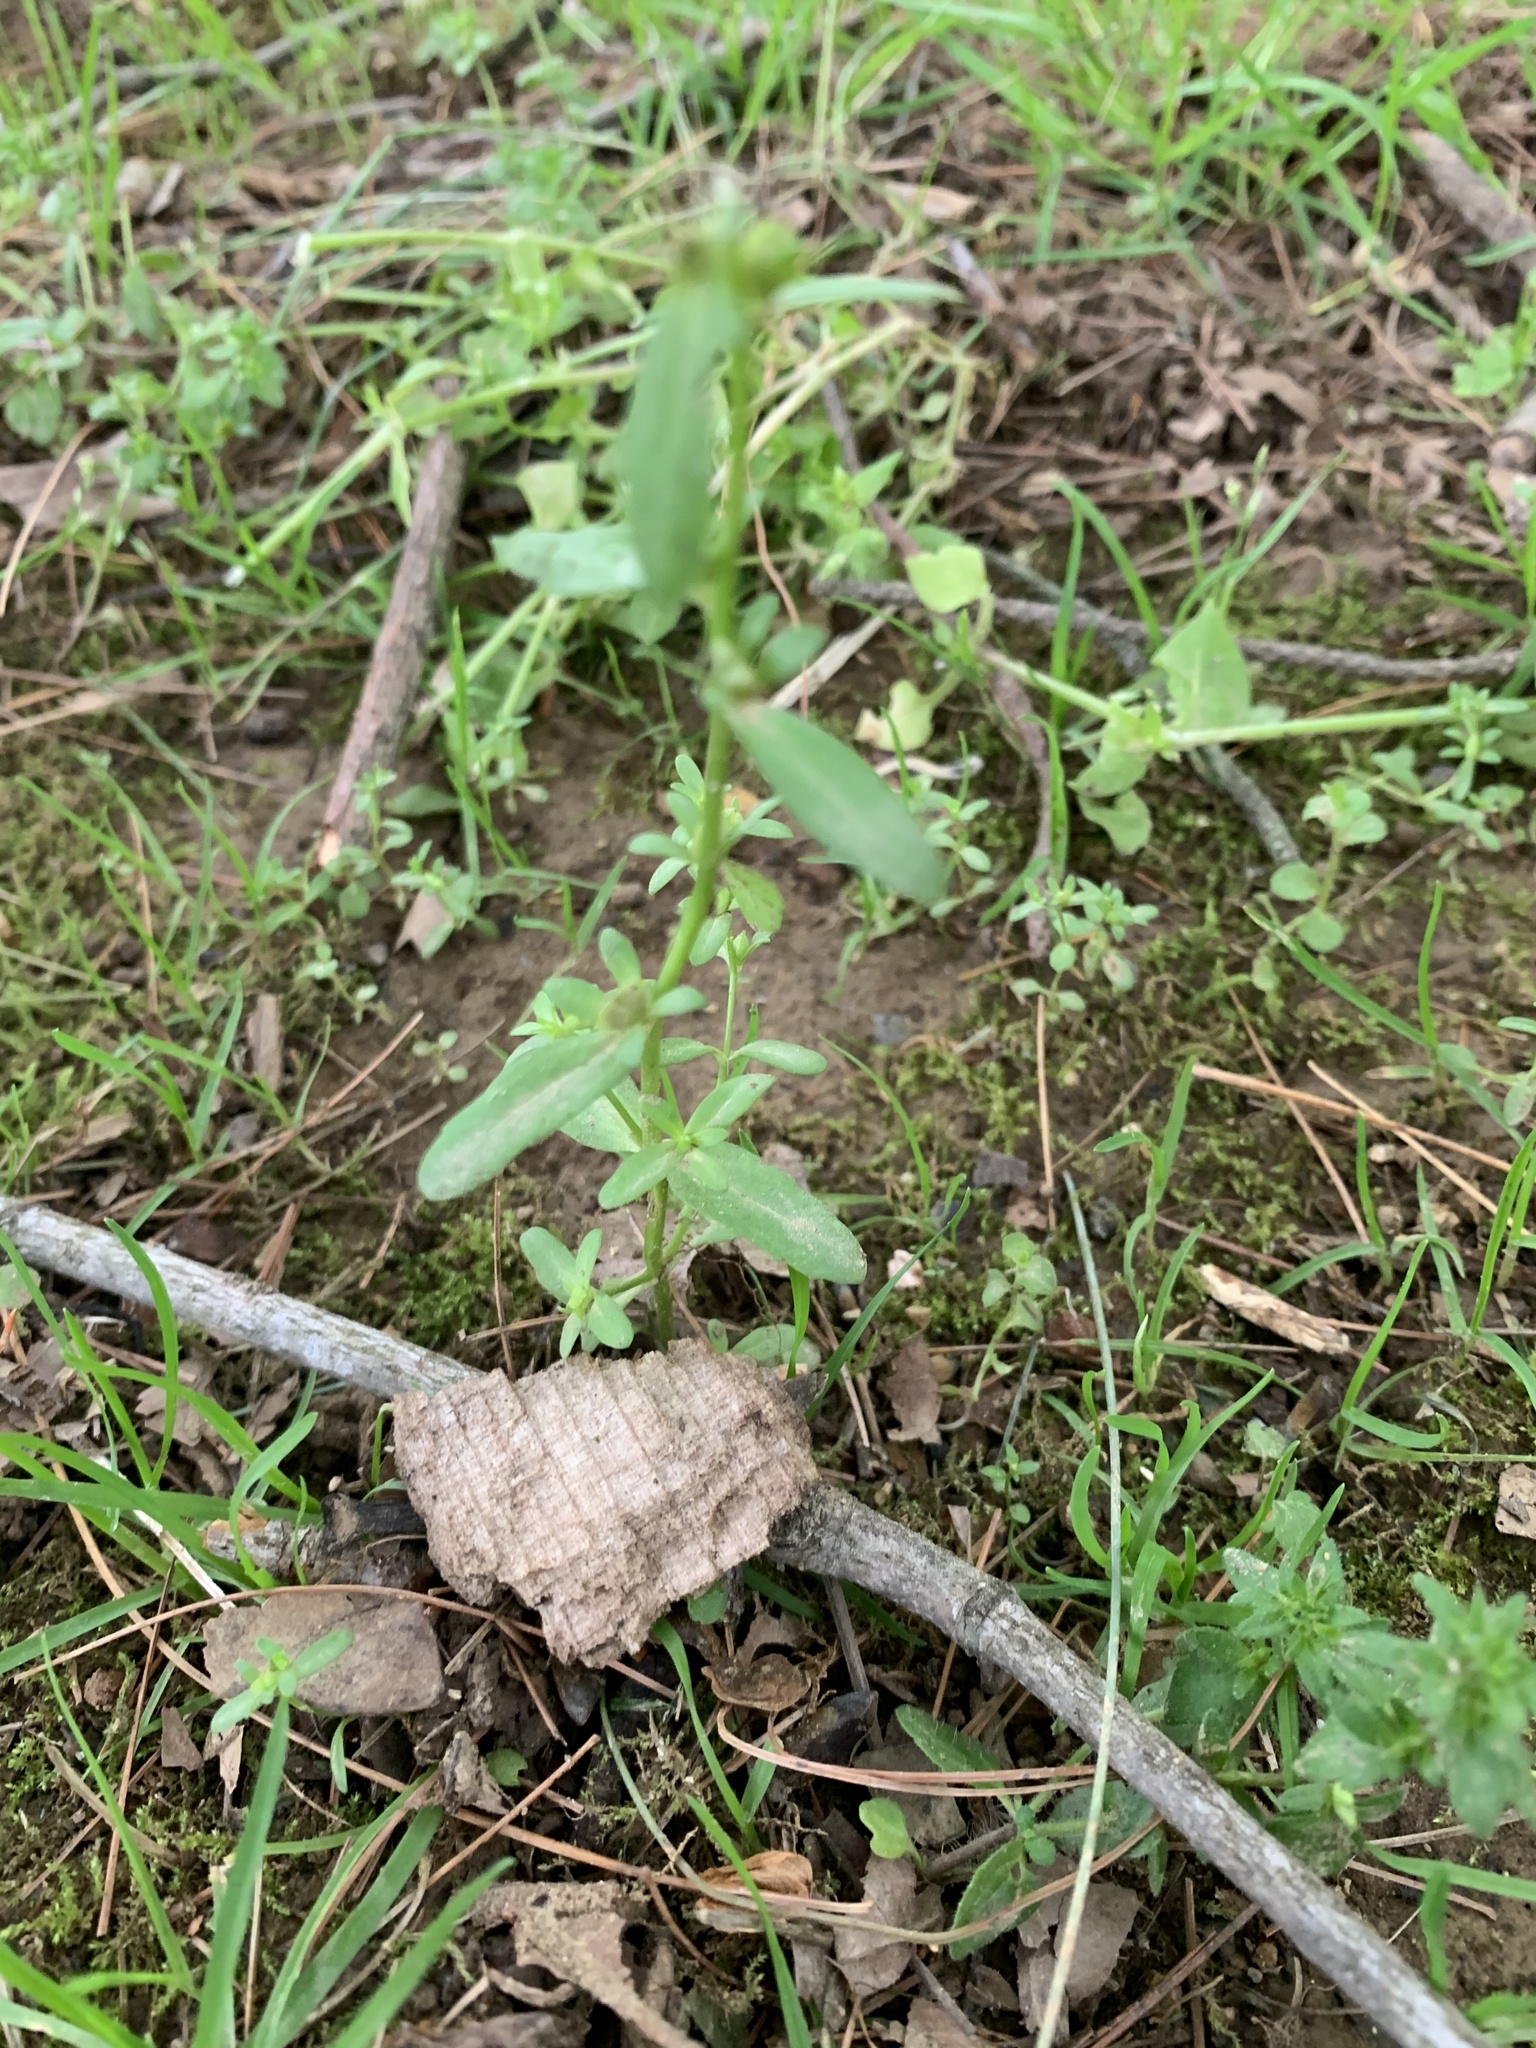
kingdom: Plantae
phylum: Tracheophyta
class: Magnoliopsida
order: Lamiales
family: Plantaginaceae
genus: Veronica
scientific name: Veronica peregrina
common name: Neckweed
